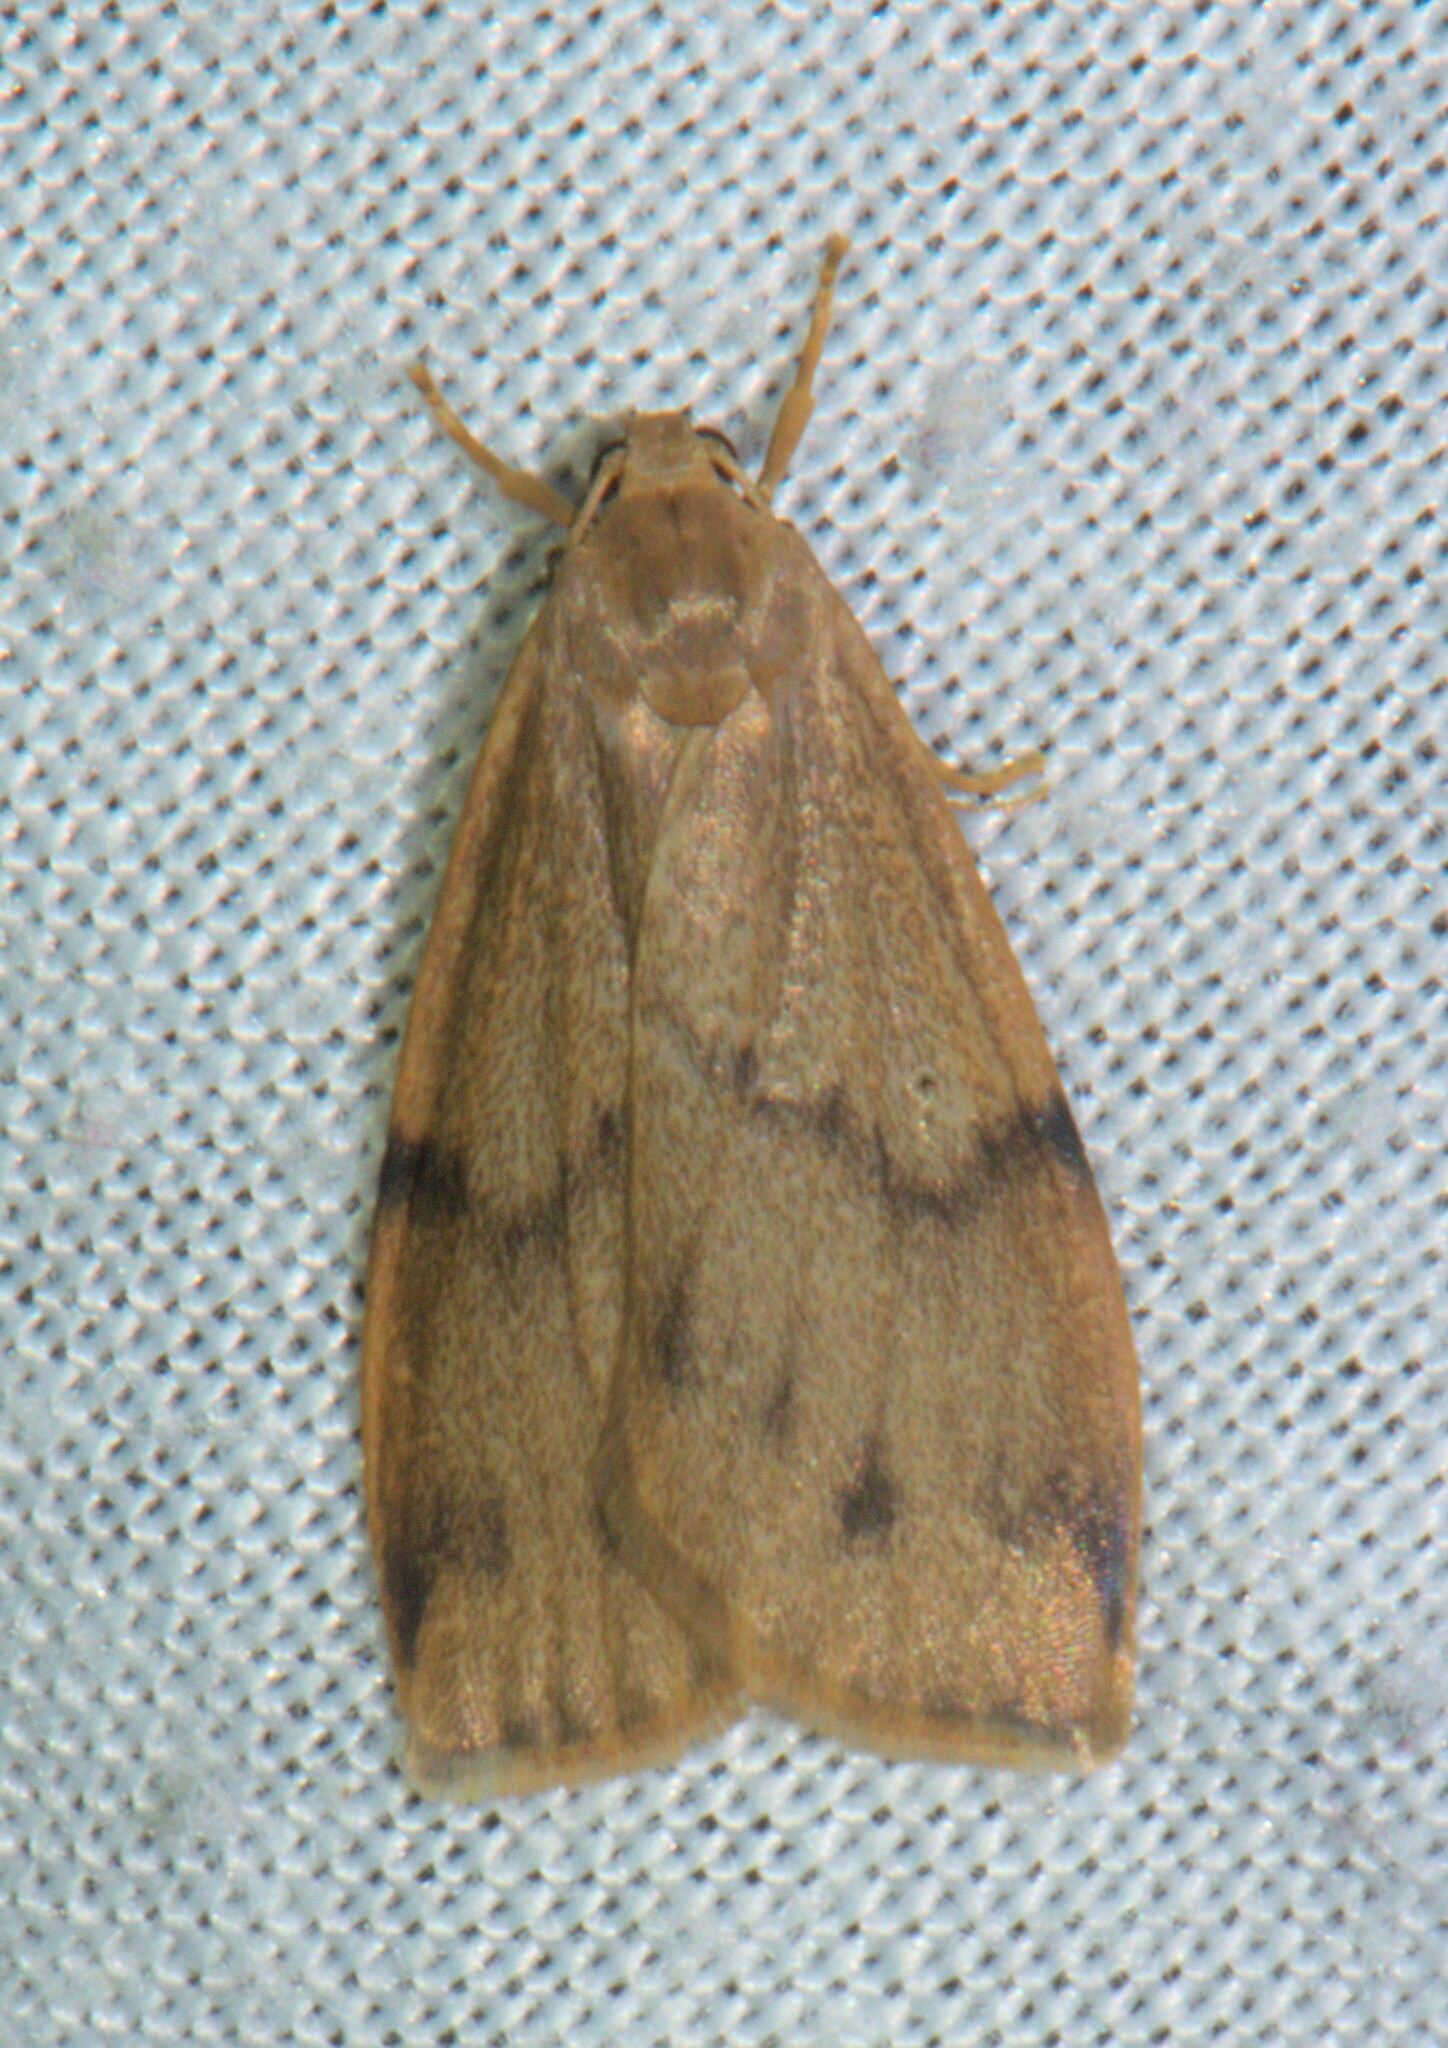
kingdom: Animalia
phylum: Arthropoda
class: Insecta
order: Lepidoptera
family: Erebidae
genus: Mithuna
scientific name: Mithuna quadriplaga
